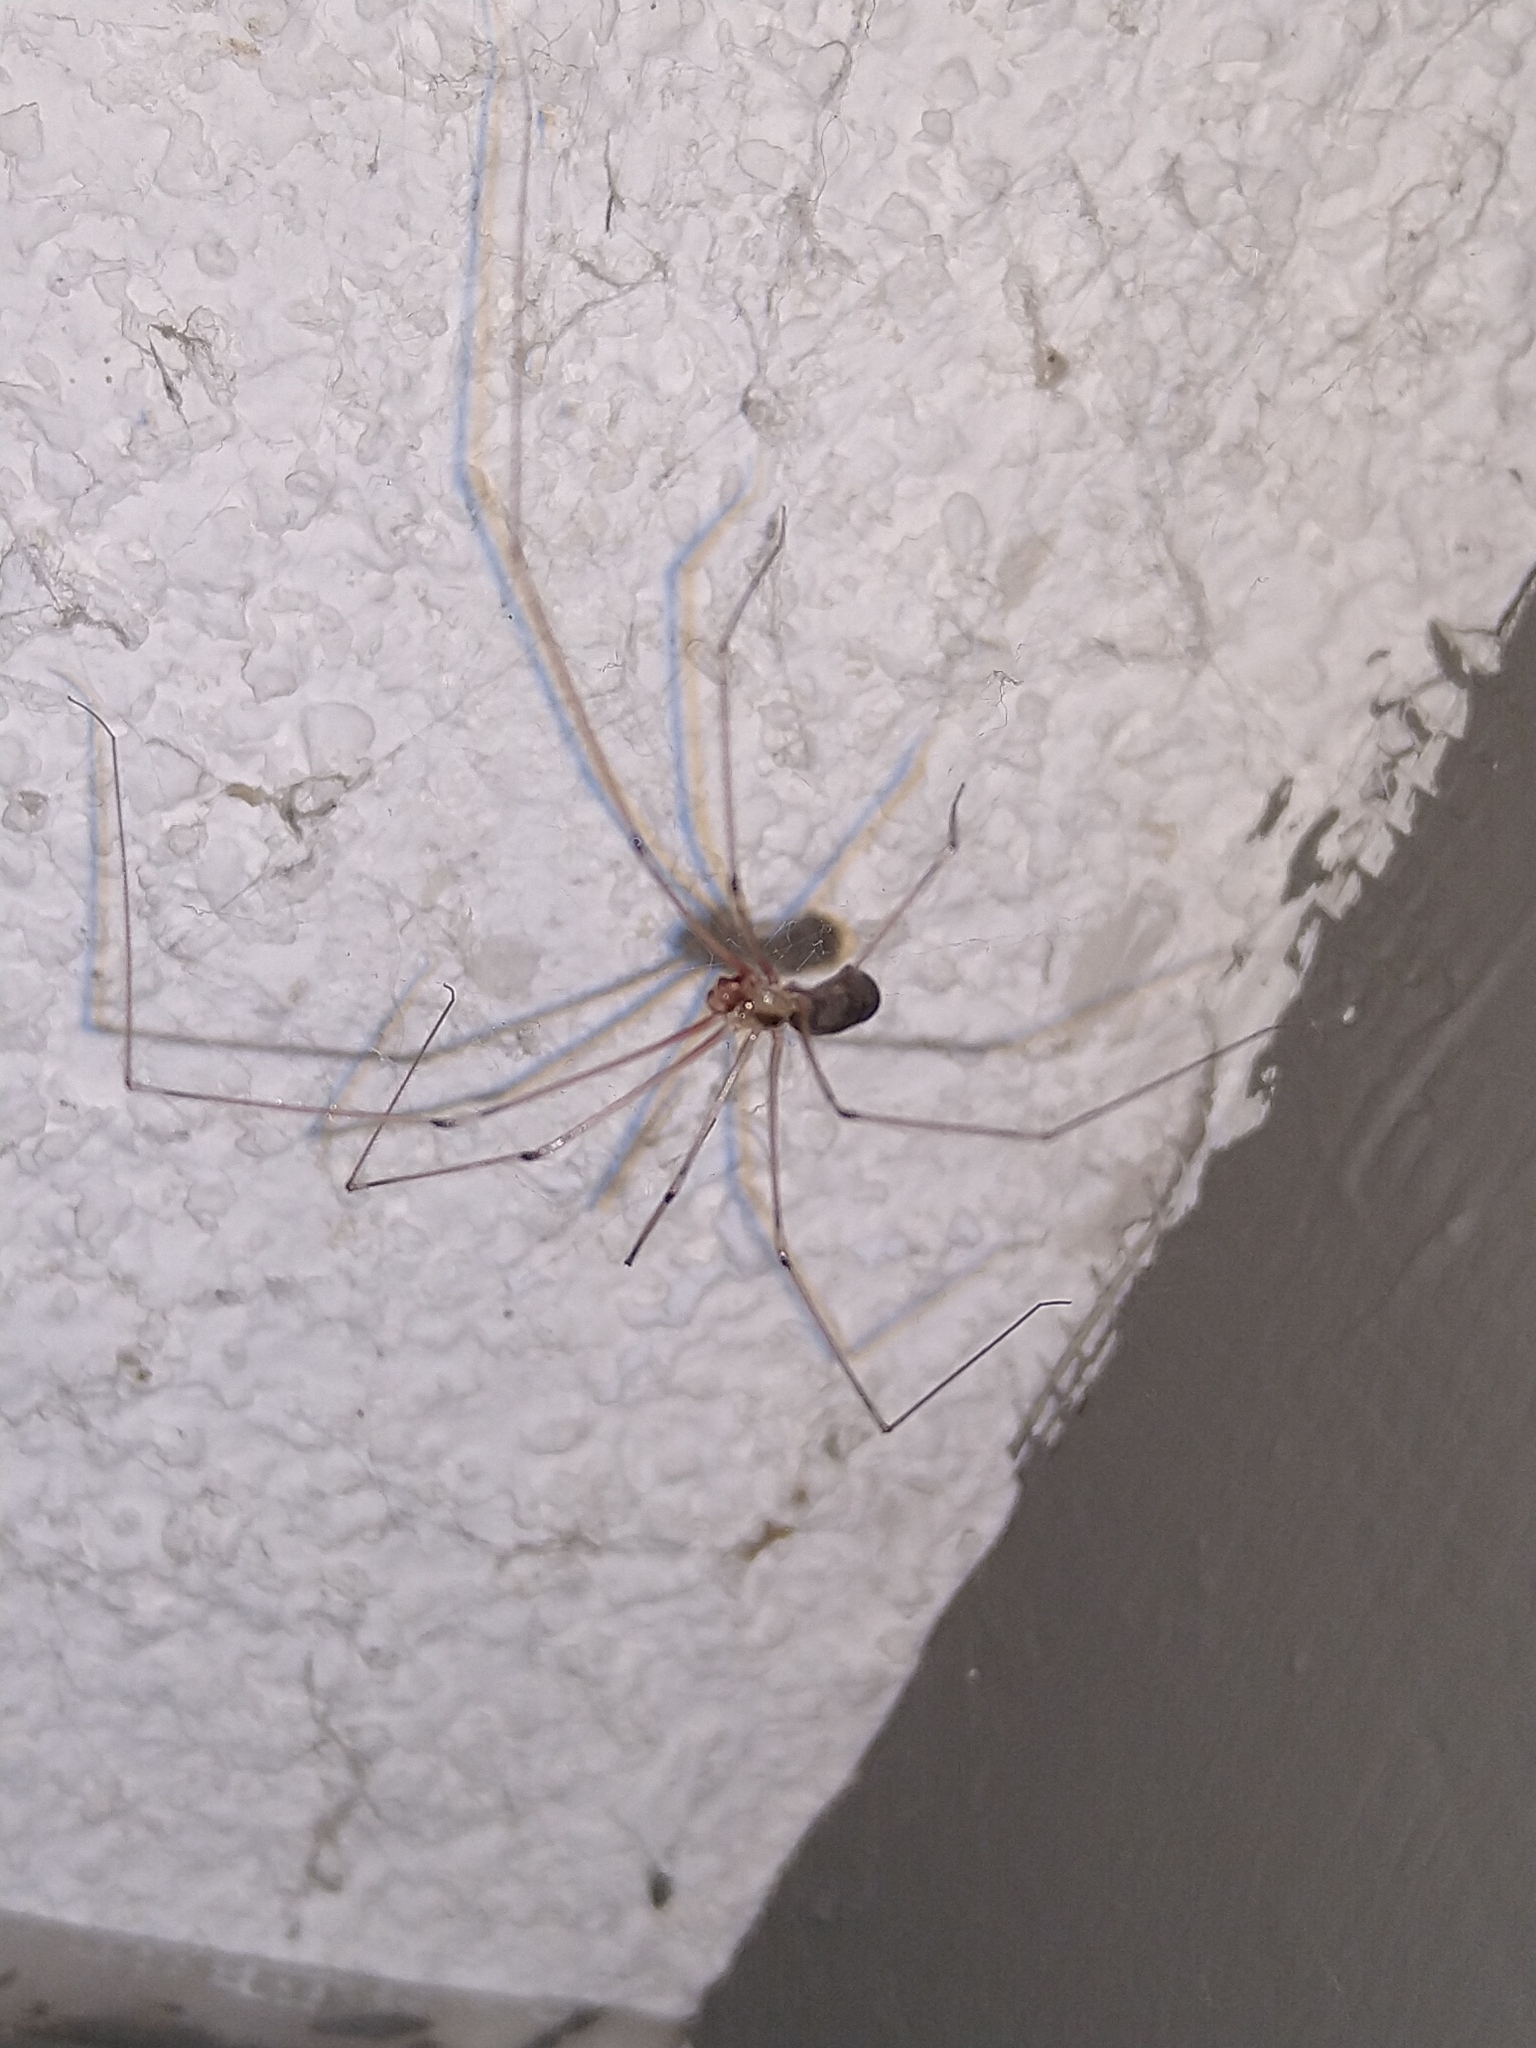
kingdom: Animalia
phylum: Arthropoda
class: Arachnida
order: Araneae
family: Pholcidae
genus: Pholcus
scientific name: Pholcus phalangioides
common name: Longbodied cellar spider
